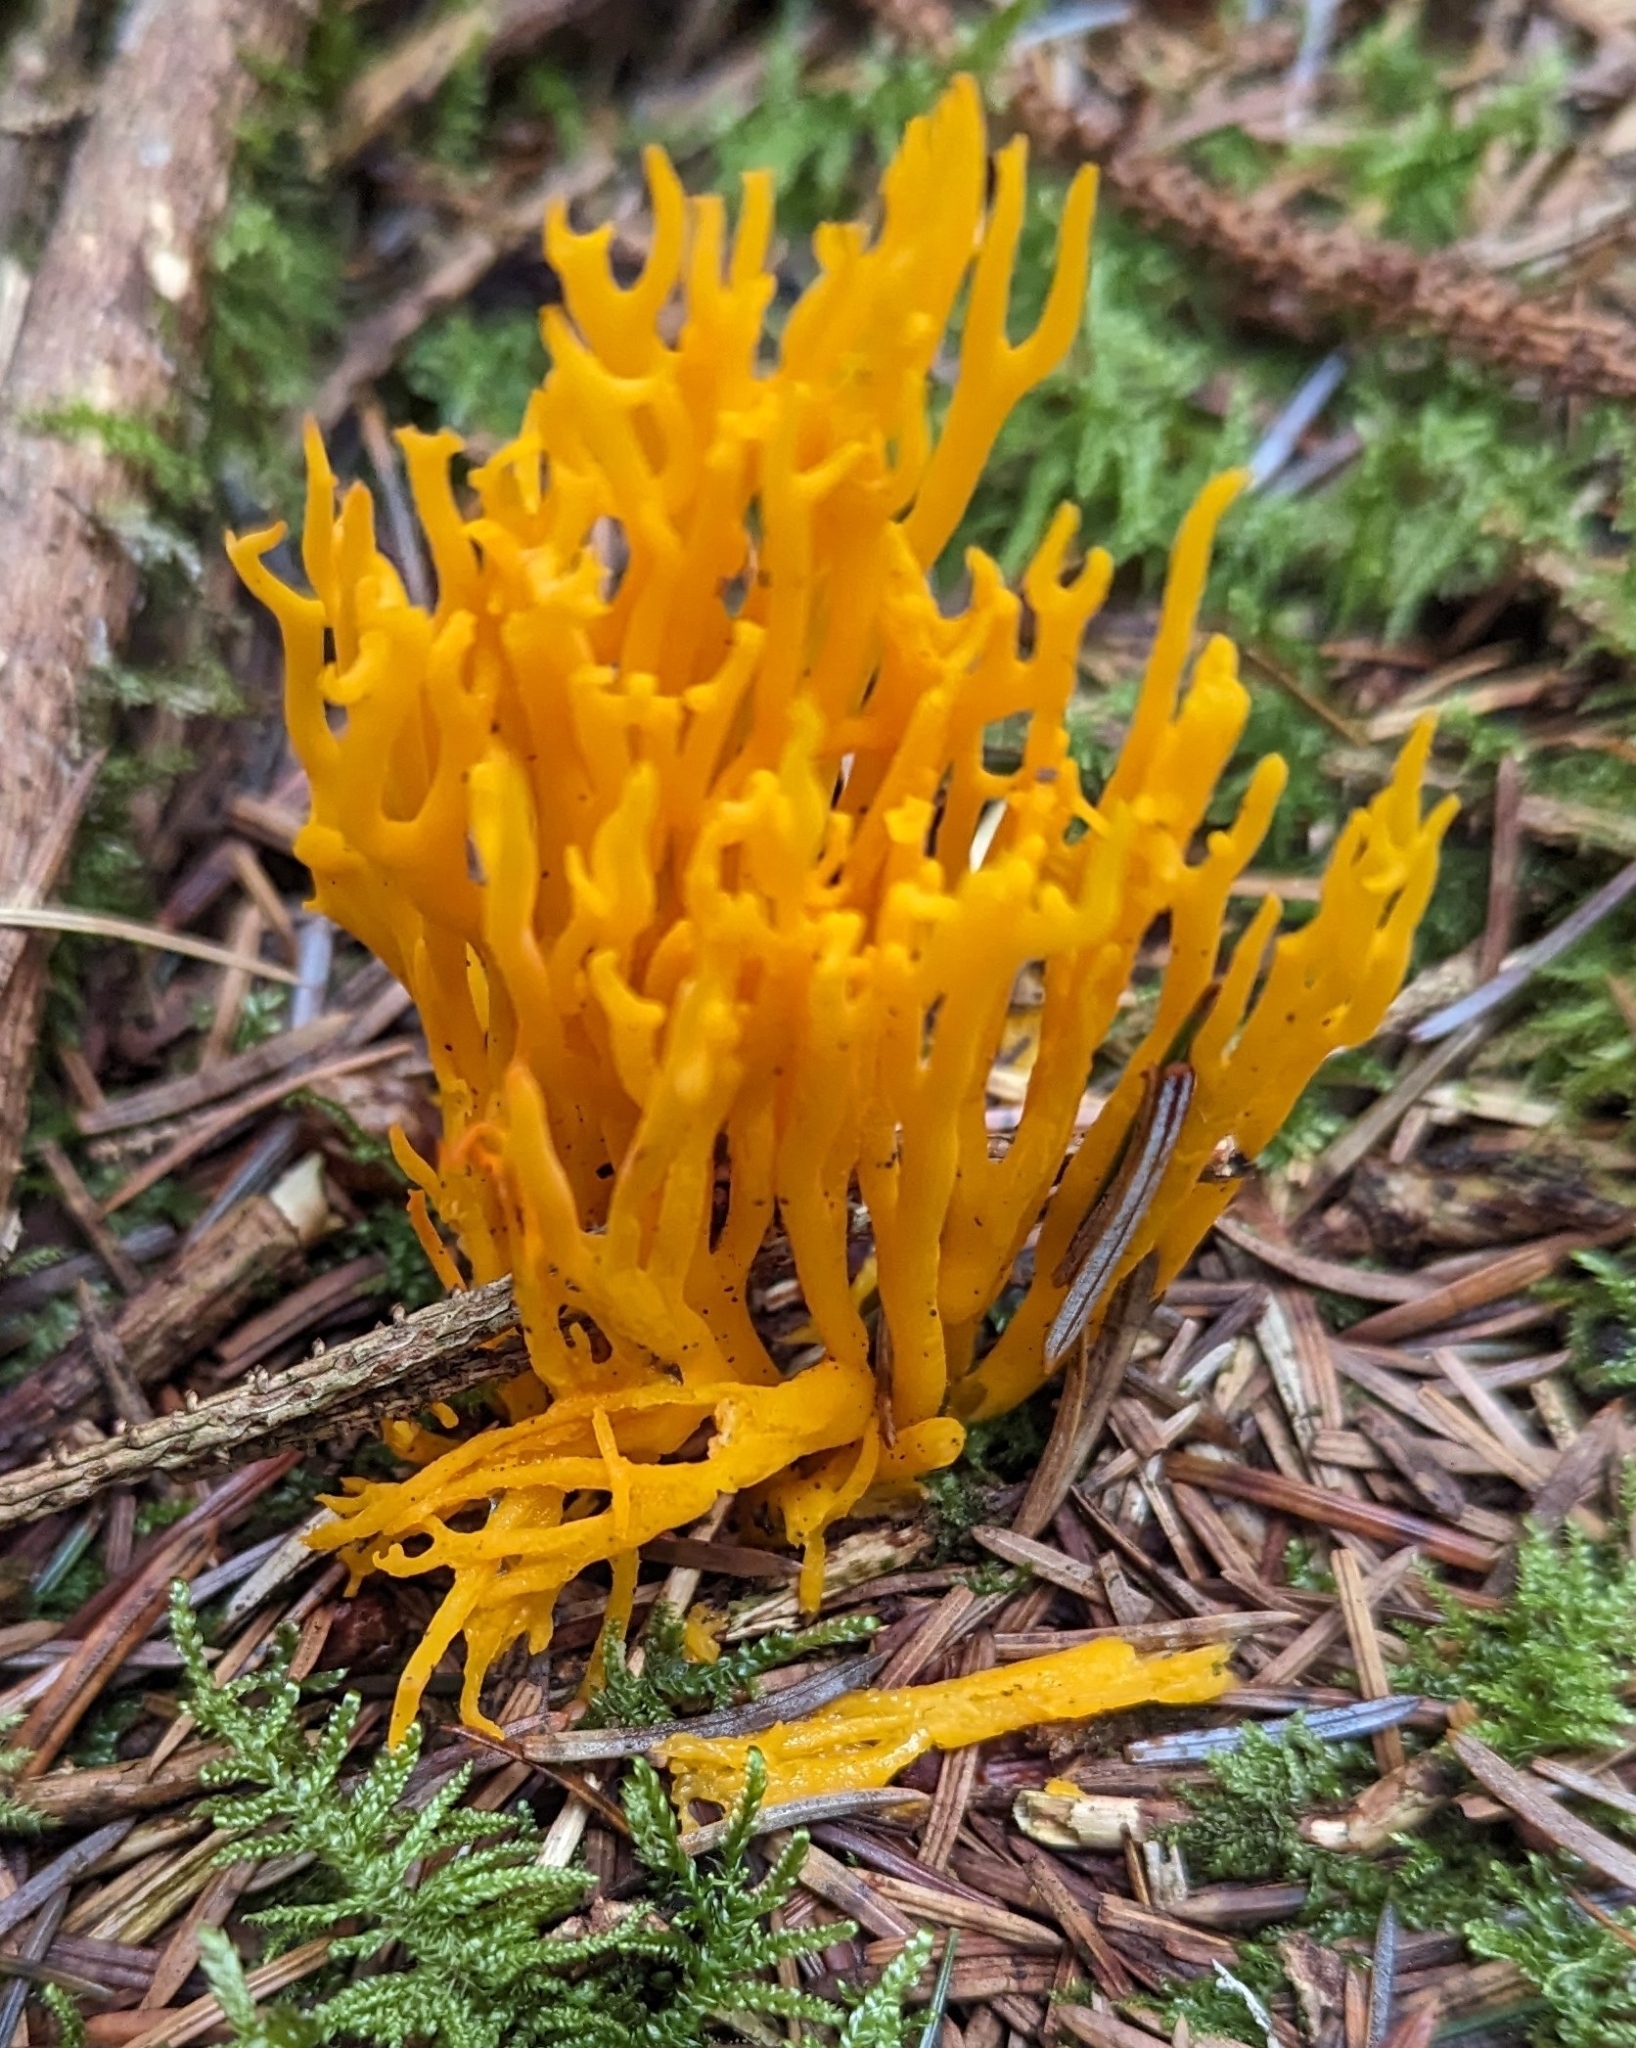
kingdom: Fungi
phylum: Basidiomycota
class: Dacrymycetes
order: Dacrymycetales
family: Dacrymycetaceae
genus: Calocera
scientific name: Calocera viscosa
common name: Yellow stagshorn
